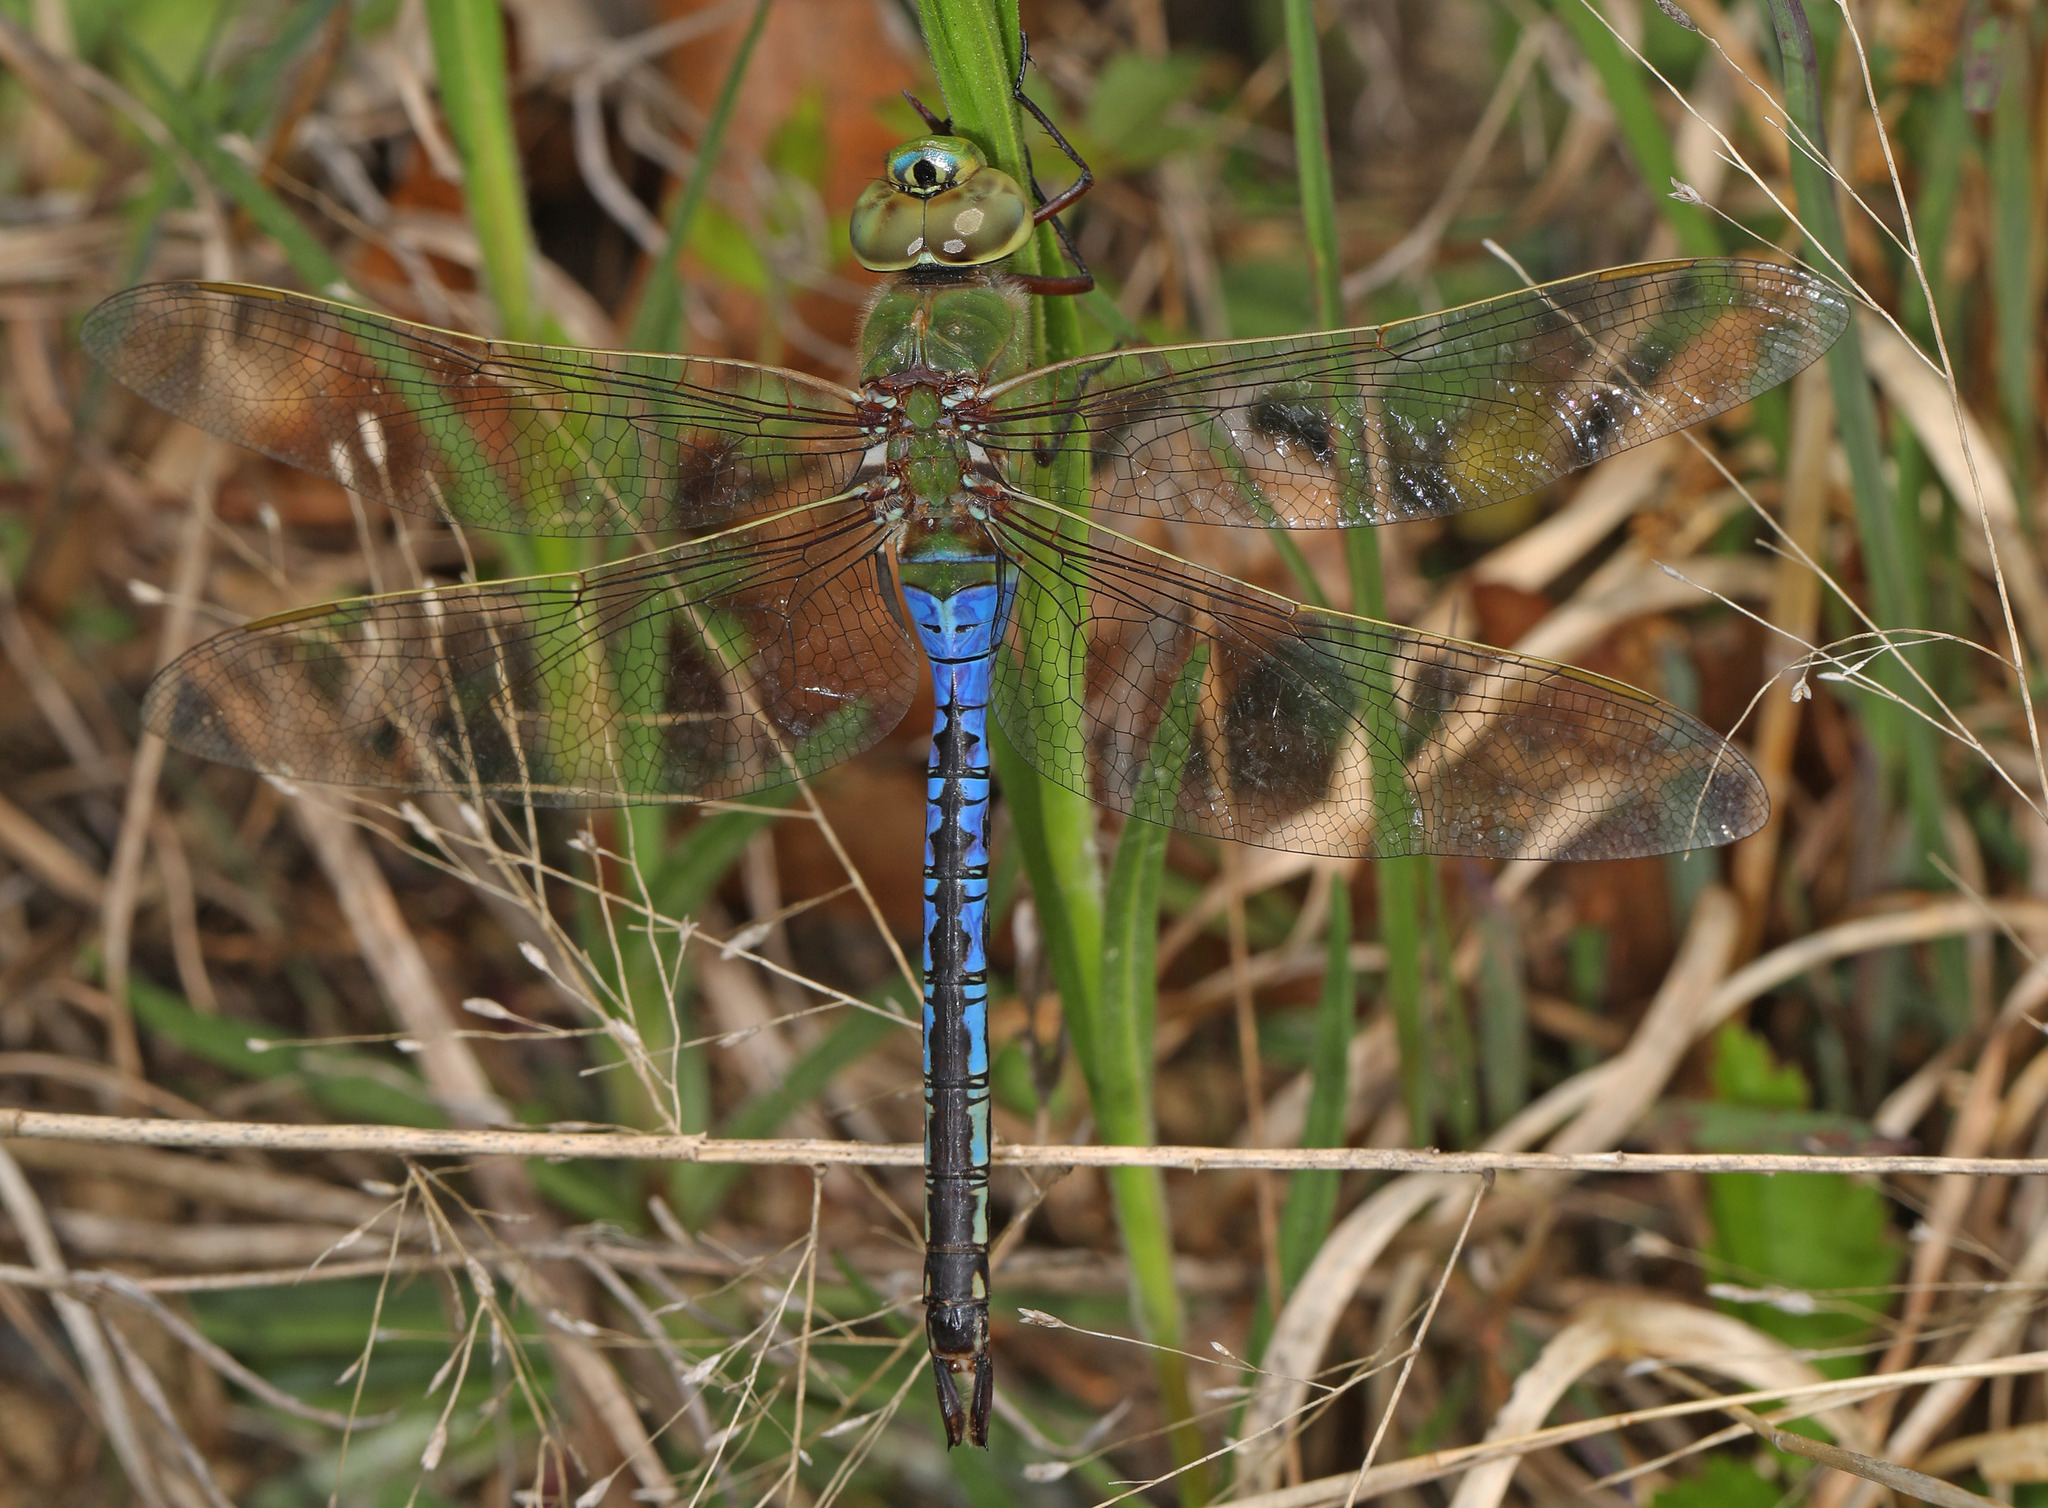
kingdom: Animalia
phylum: Arthropoda
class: Insecta
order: Odonata
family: Aeshnidae
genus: Anax
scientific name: Anax junius
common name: Common green darner
